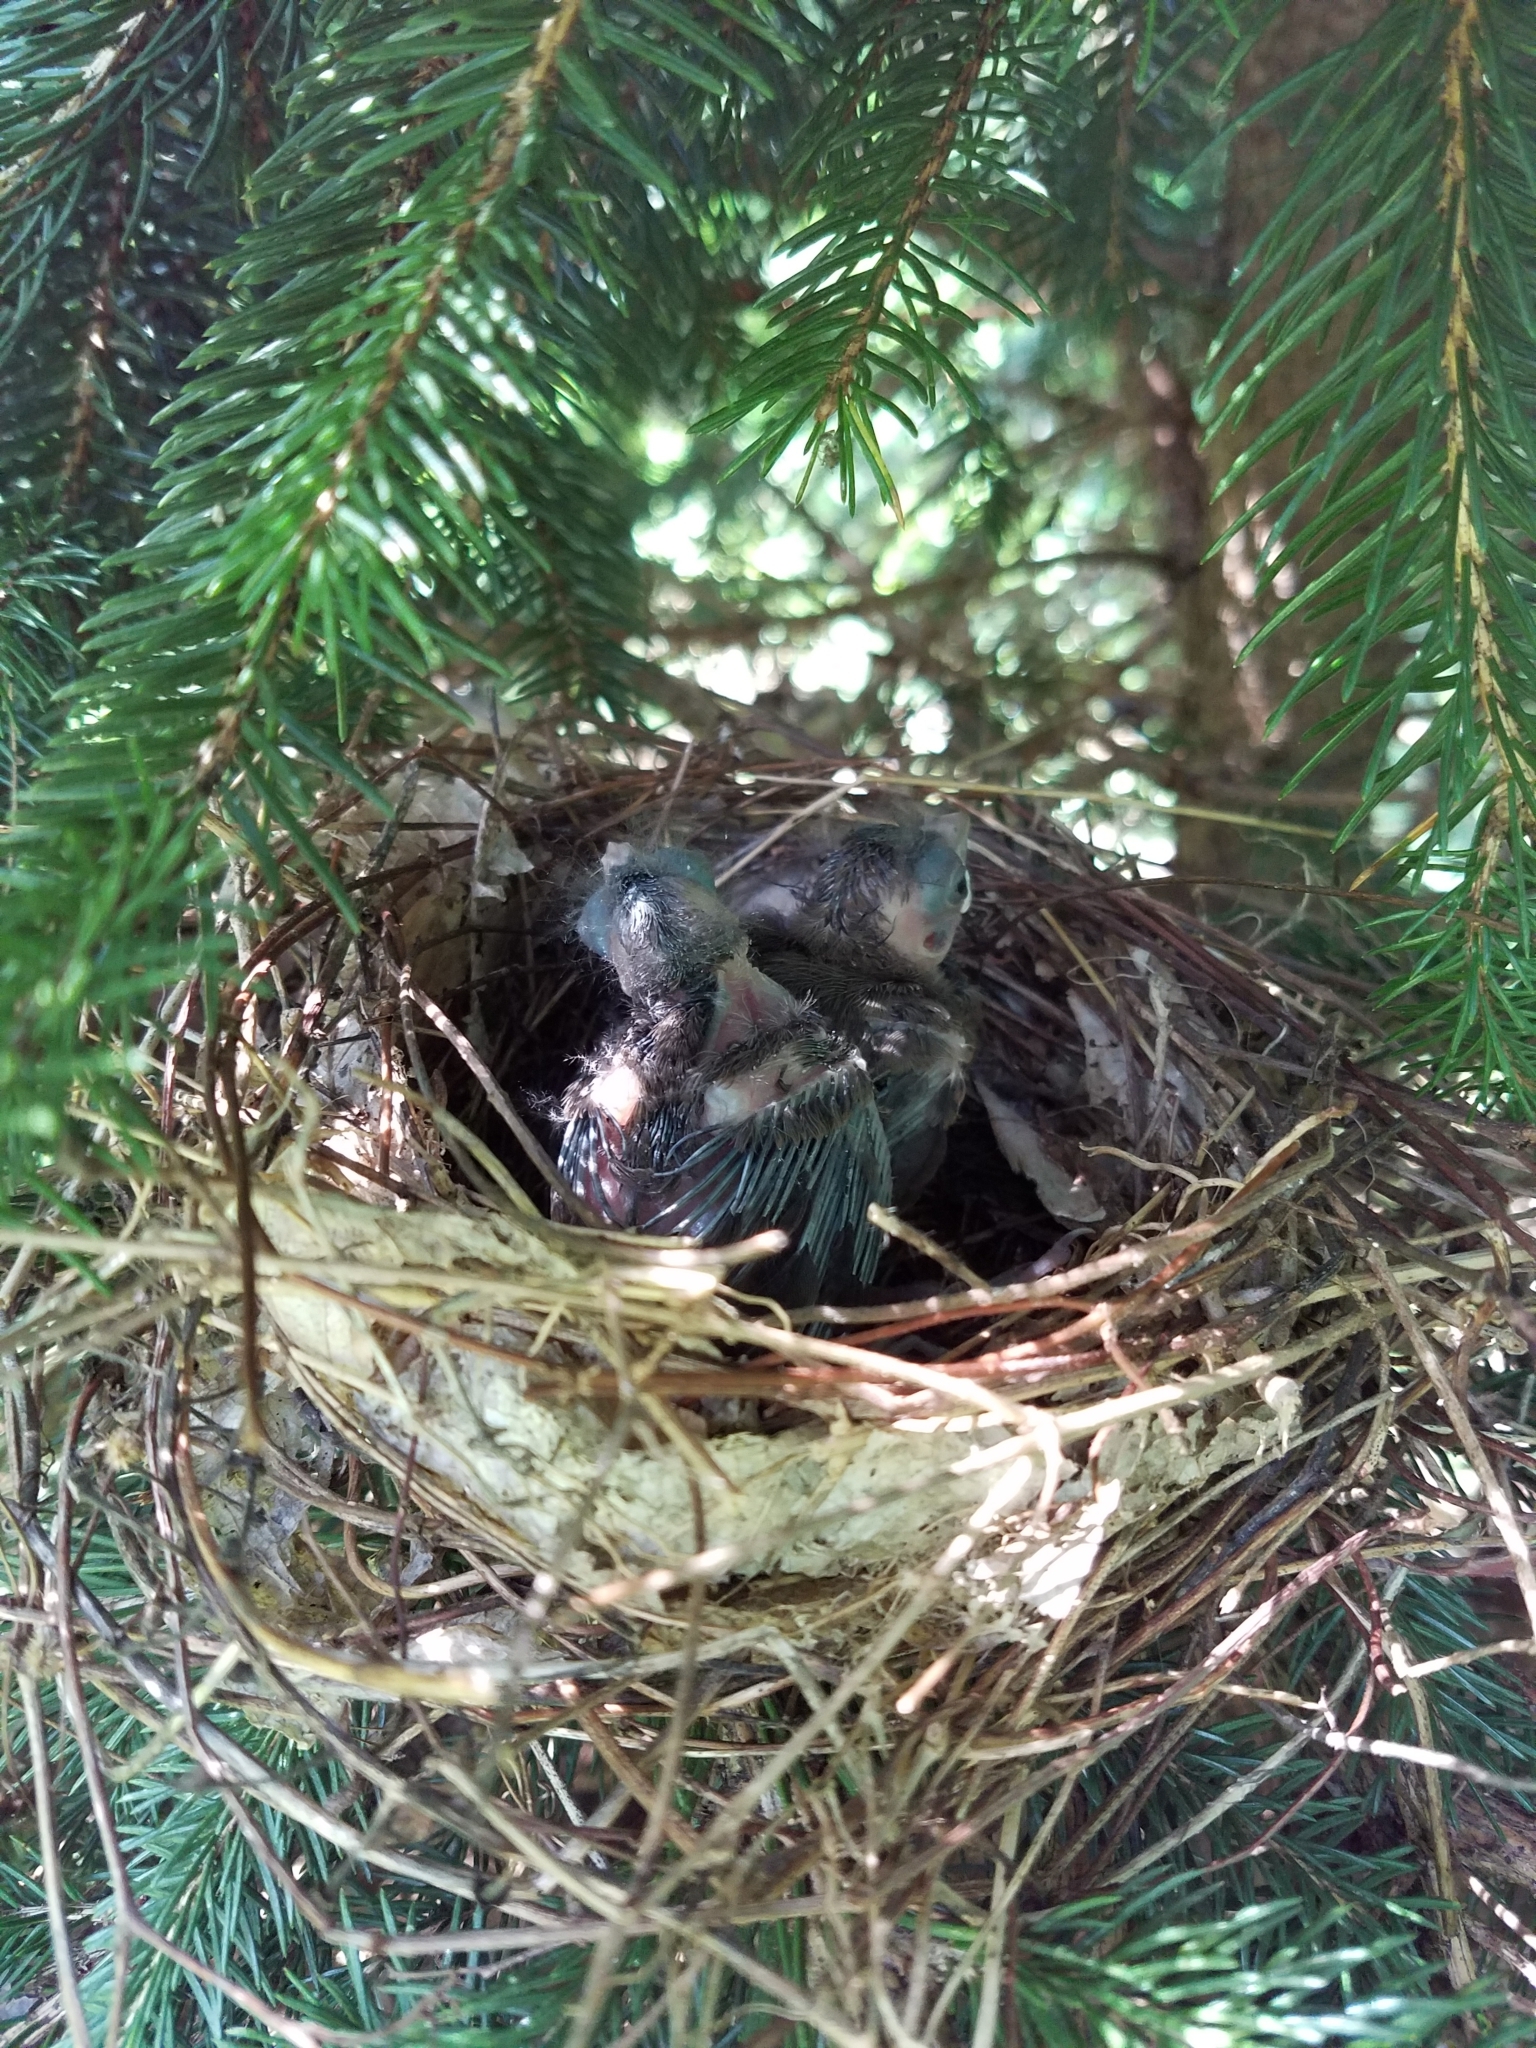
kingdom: Animalia
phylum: Chordata
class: Aves
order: Passeriformes
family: Cardinalidae
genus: Cardinalis
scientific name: Cardinalis cardinalis
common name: Northern cardinal
